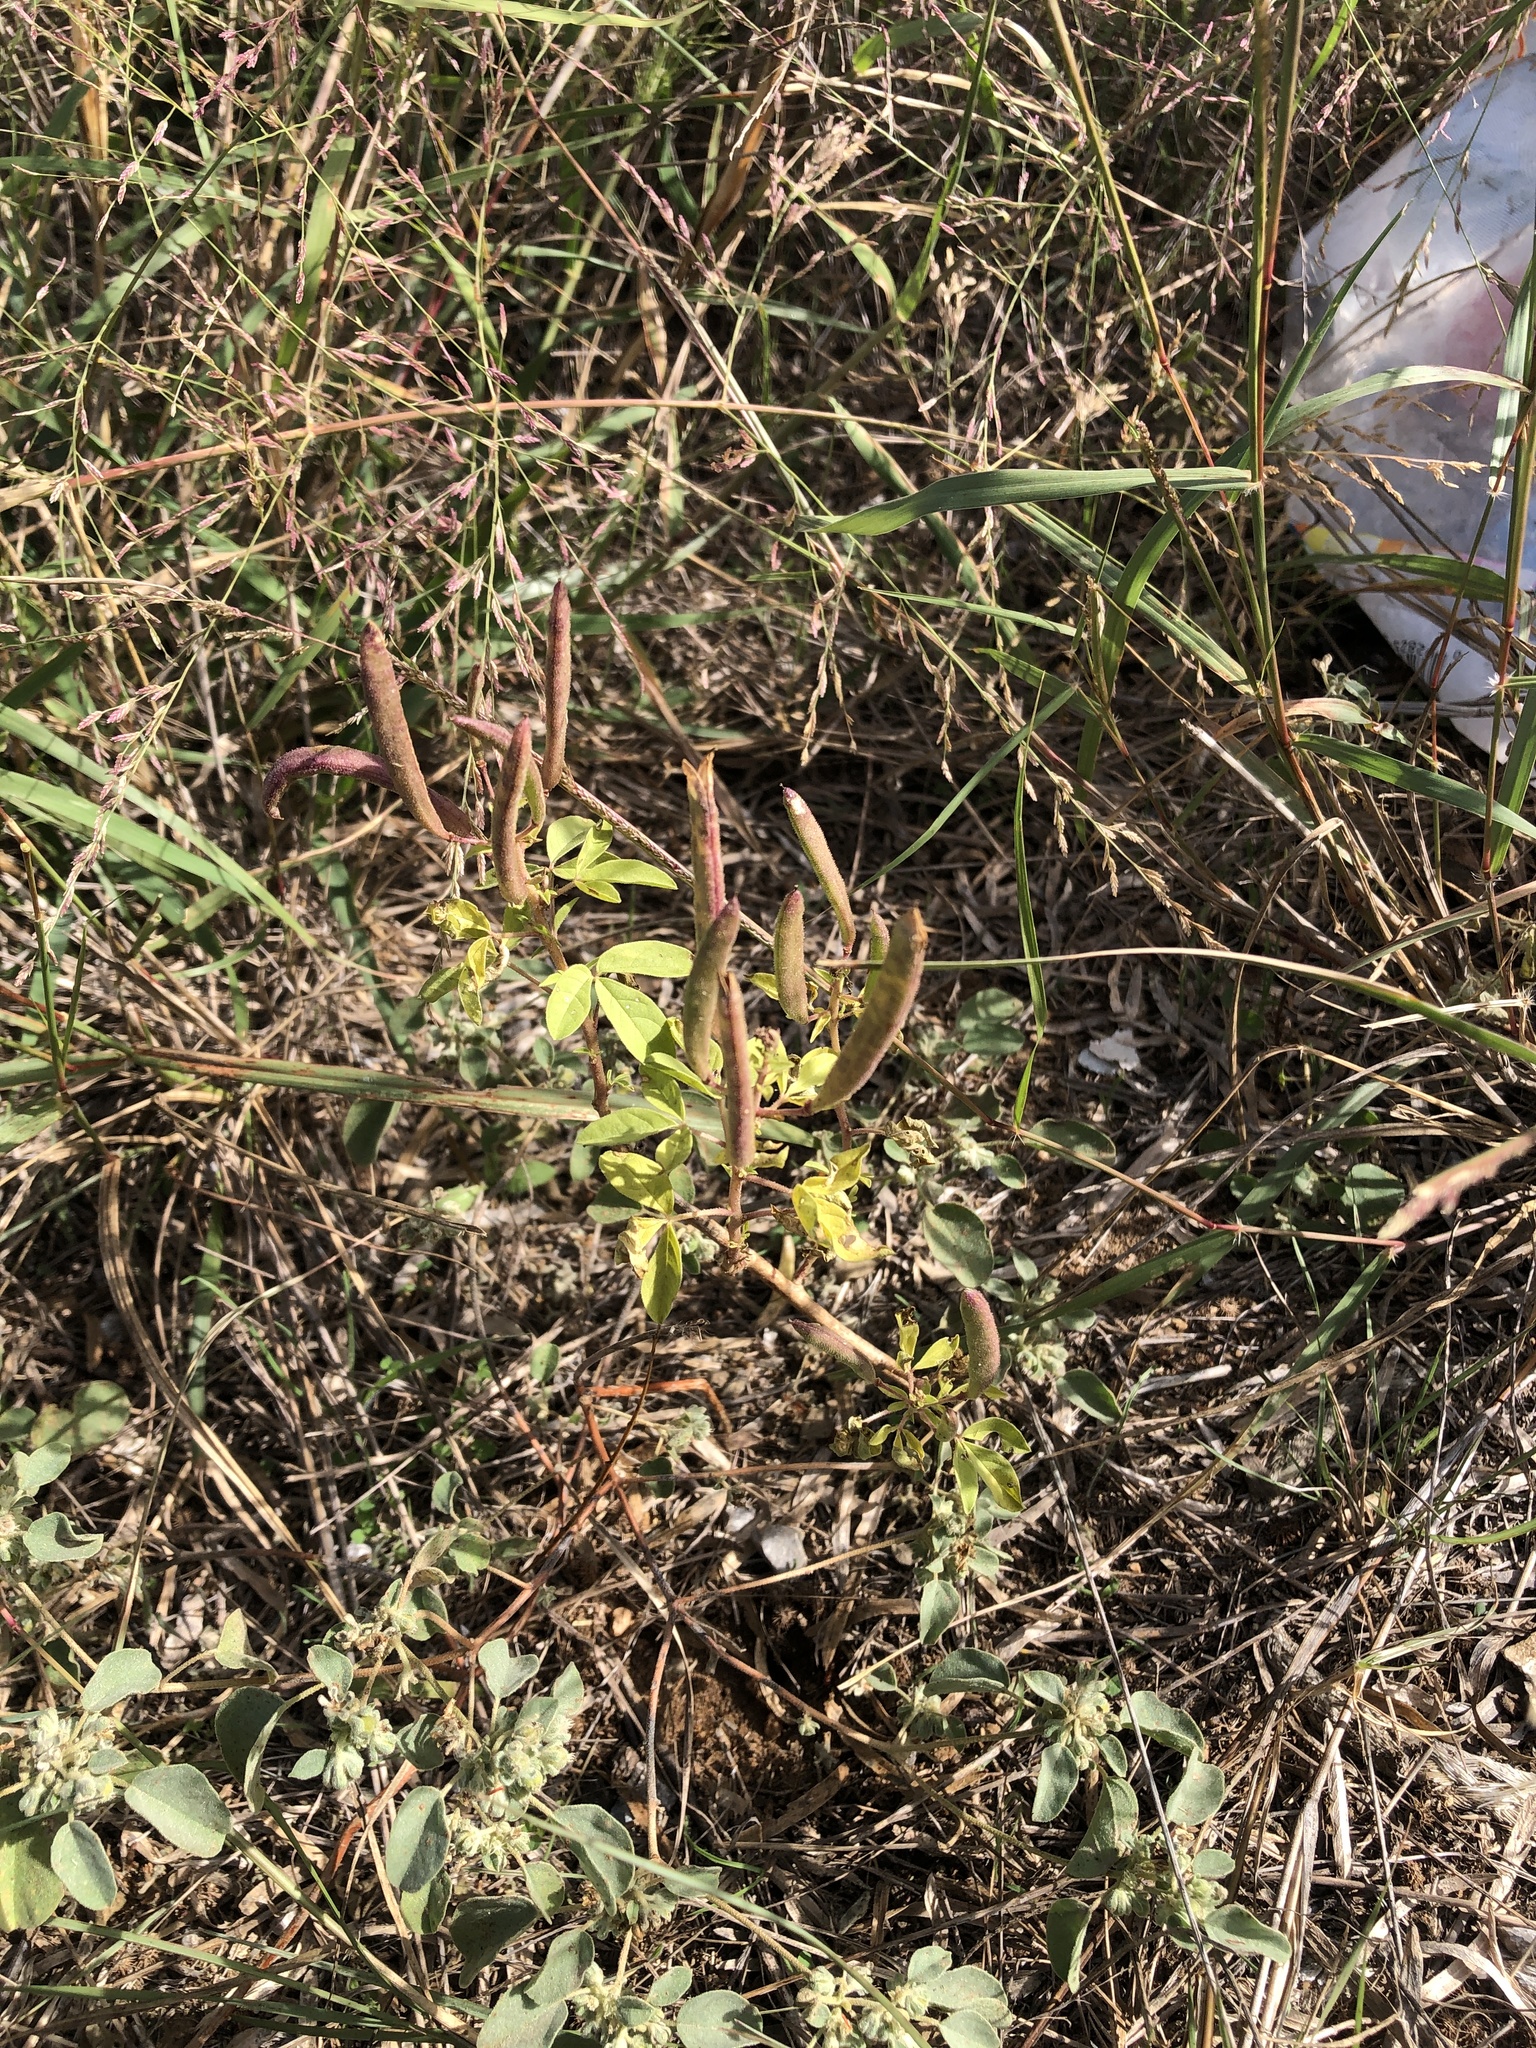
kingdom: Plantae
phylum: Tracheophyta
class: Magnoliopsida
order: Brassicales
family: Cleomaceae
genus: Polanisia
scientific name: Polanisia dodecandra
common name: Clammyweed
